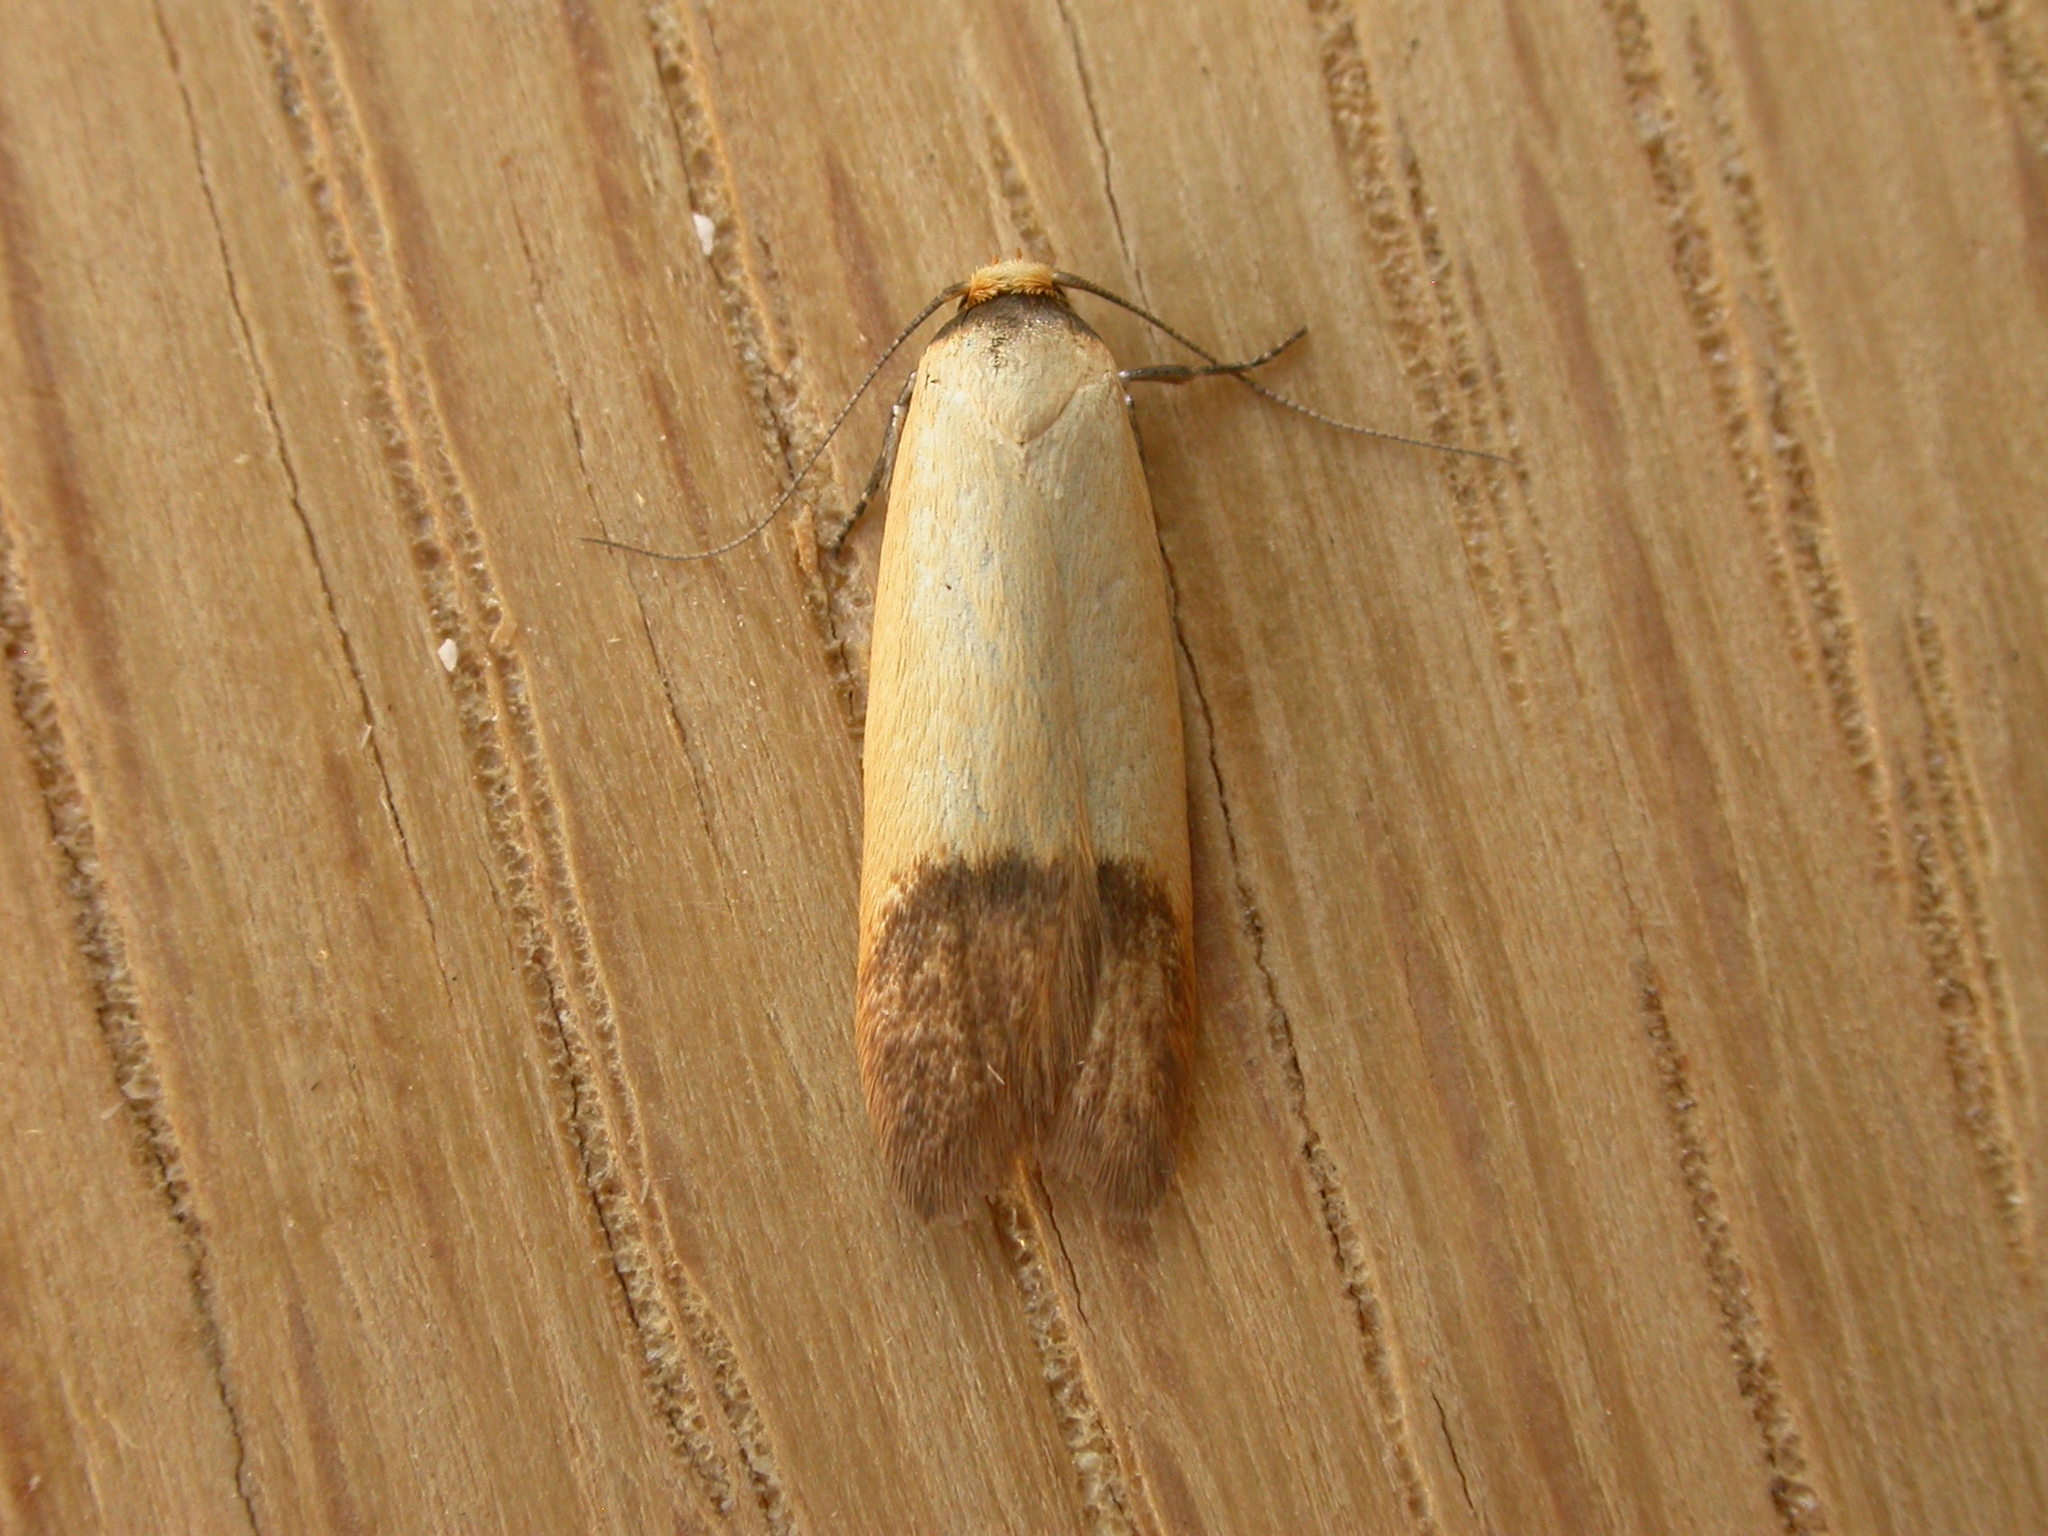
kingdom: Animalia
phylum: Arthropoda
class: Insecta
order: Lepidoptera
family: Oecophoridae
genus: Tachystola
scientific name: Tachystola stenoptera
